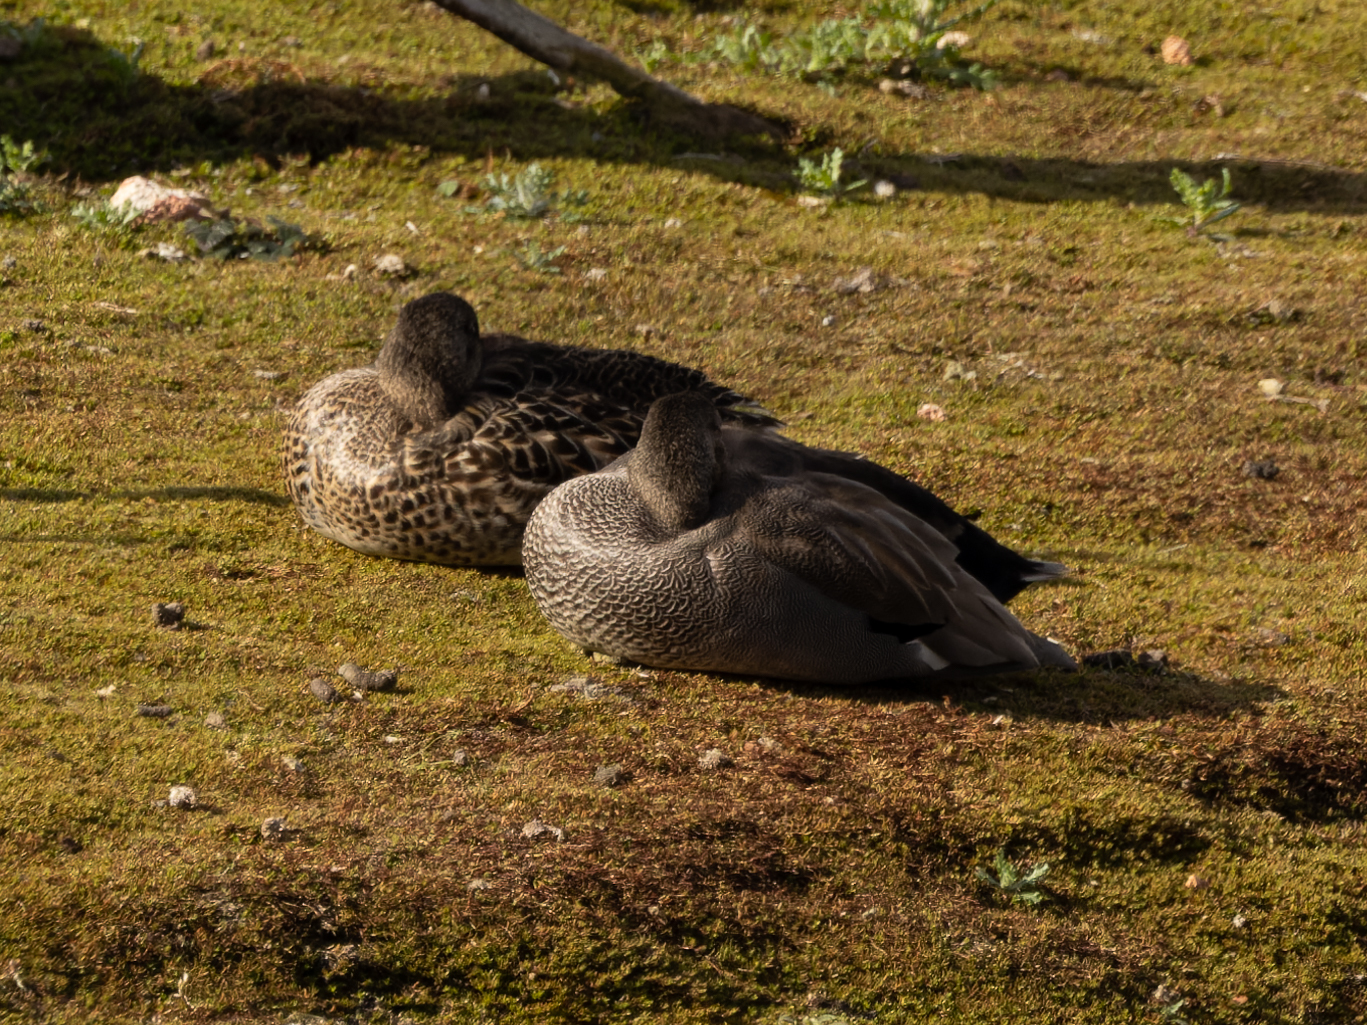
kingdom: Animalia
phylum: Chordata
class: Aves
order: Anseriformes
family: Anatidae
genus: Mareca
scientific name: Mareca strepera
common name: Gadwall
